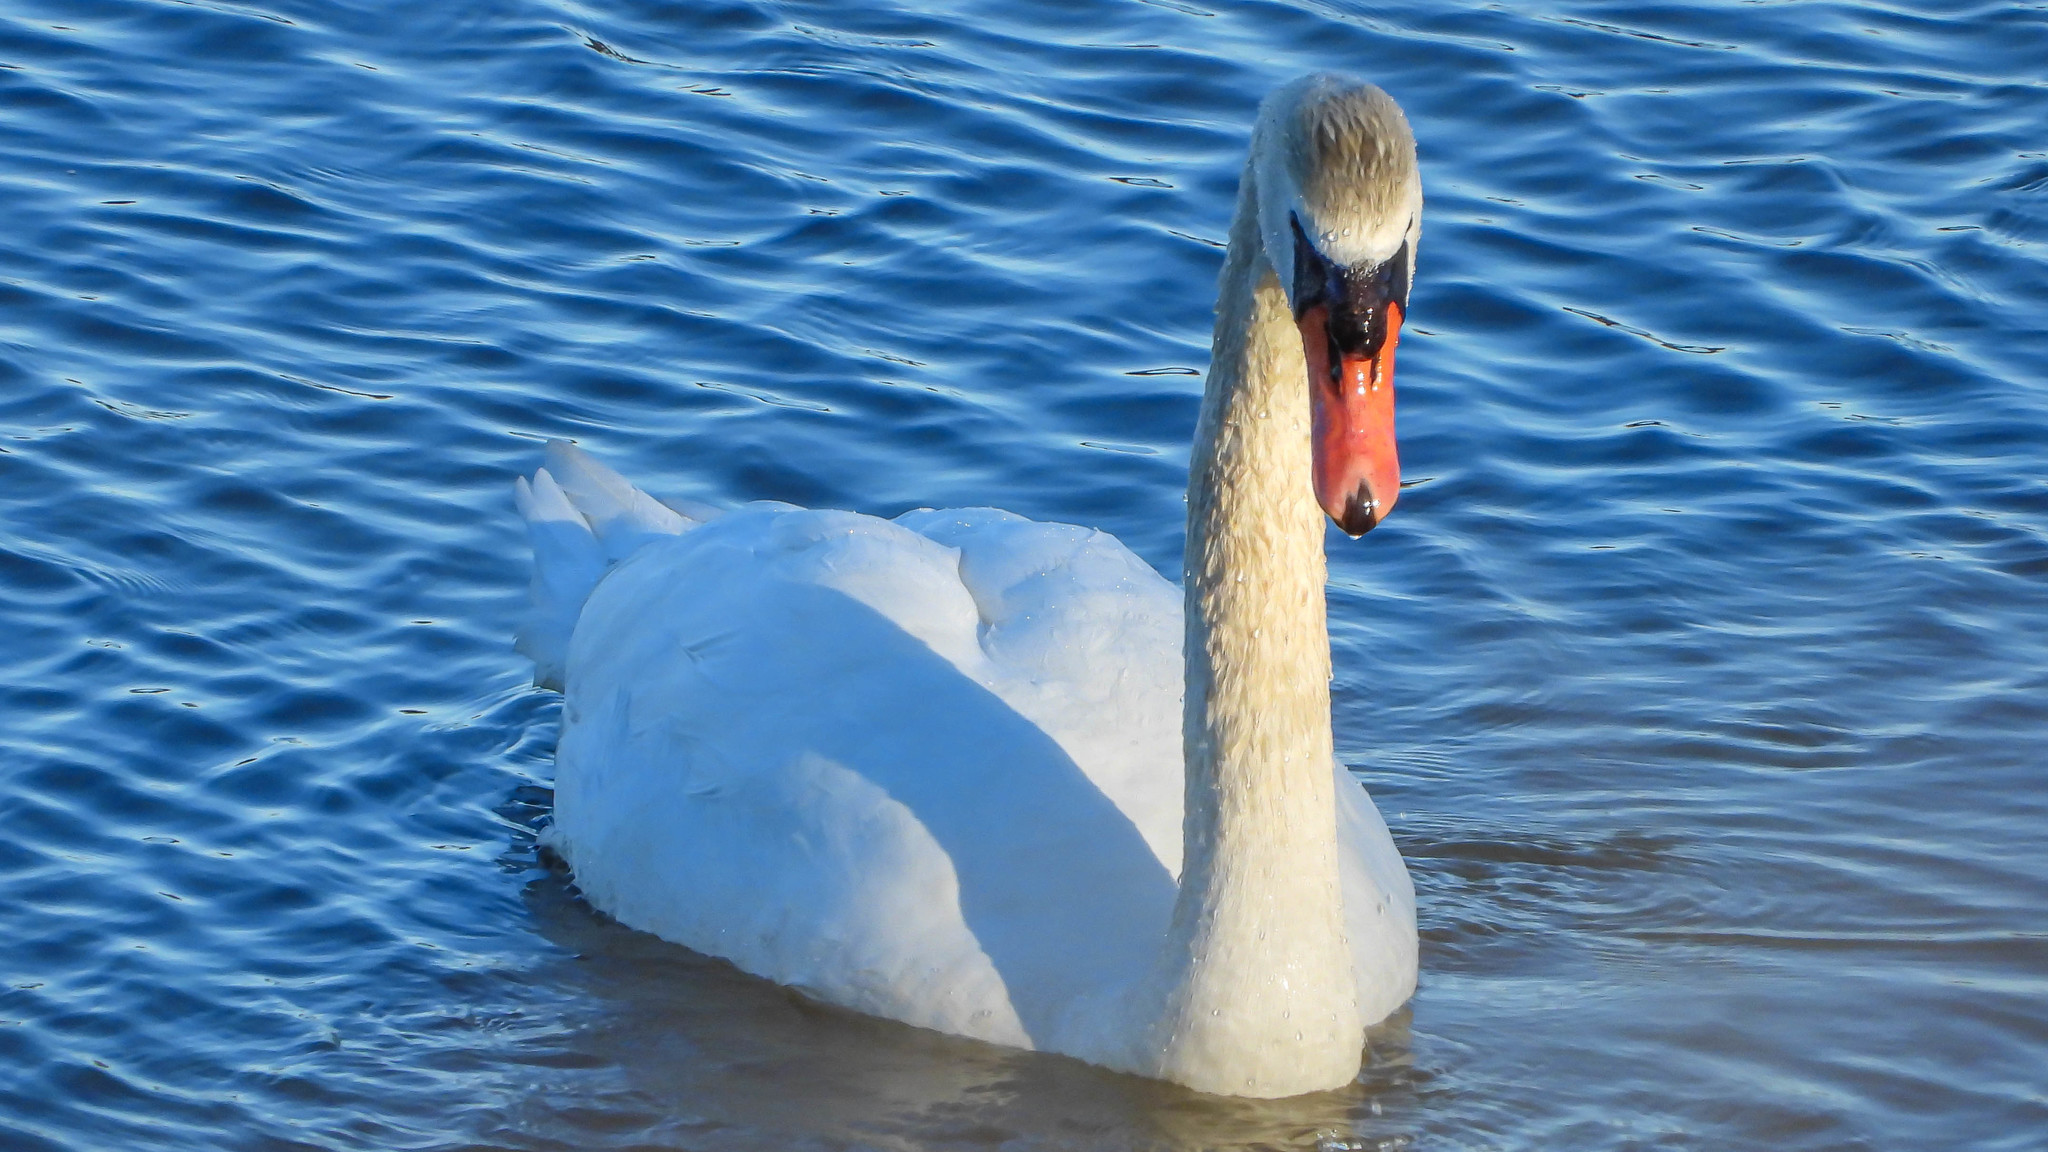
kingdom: Animalia
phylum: Chordata
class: Aves
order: Anseriformes
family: Anatidae
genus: Cygnus
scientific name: Cygnus olor
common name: Mute swan
